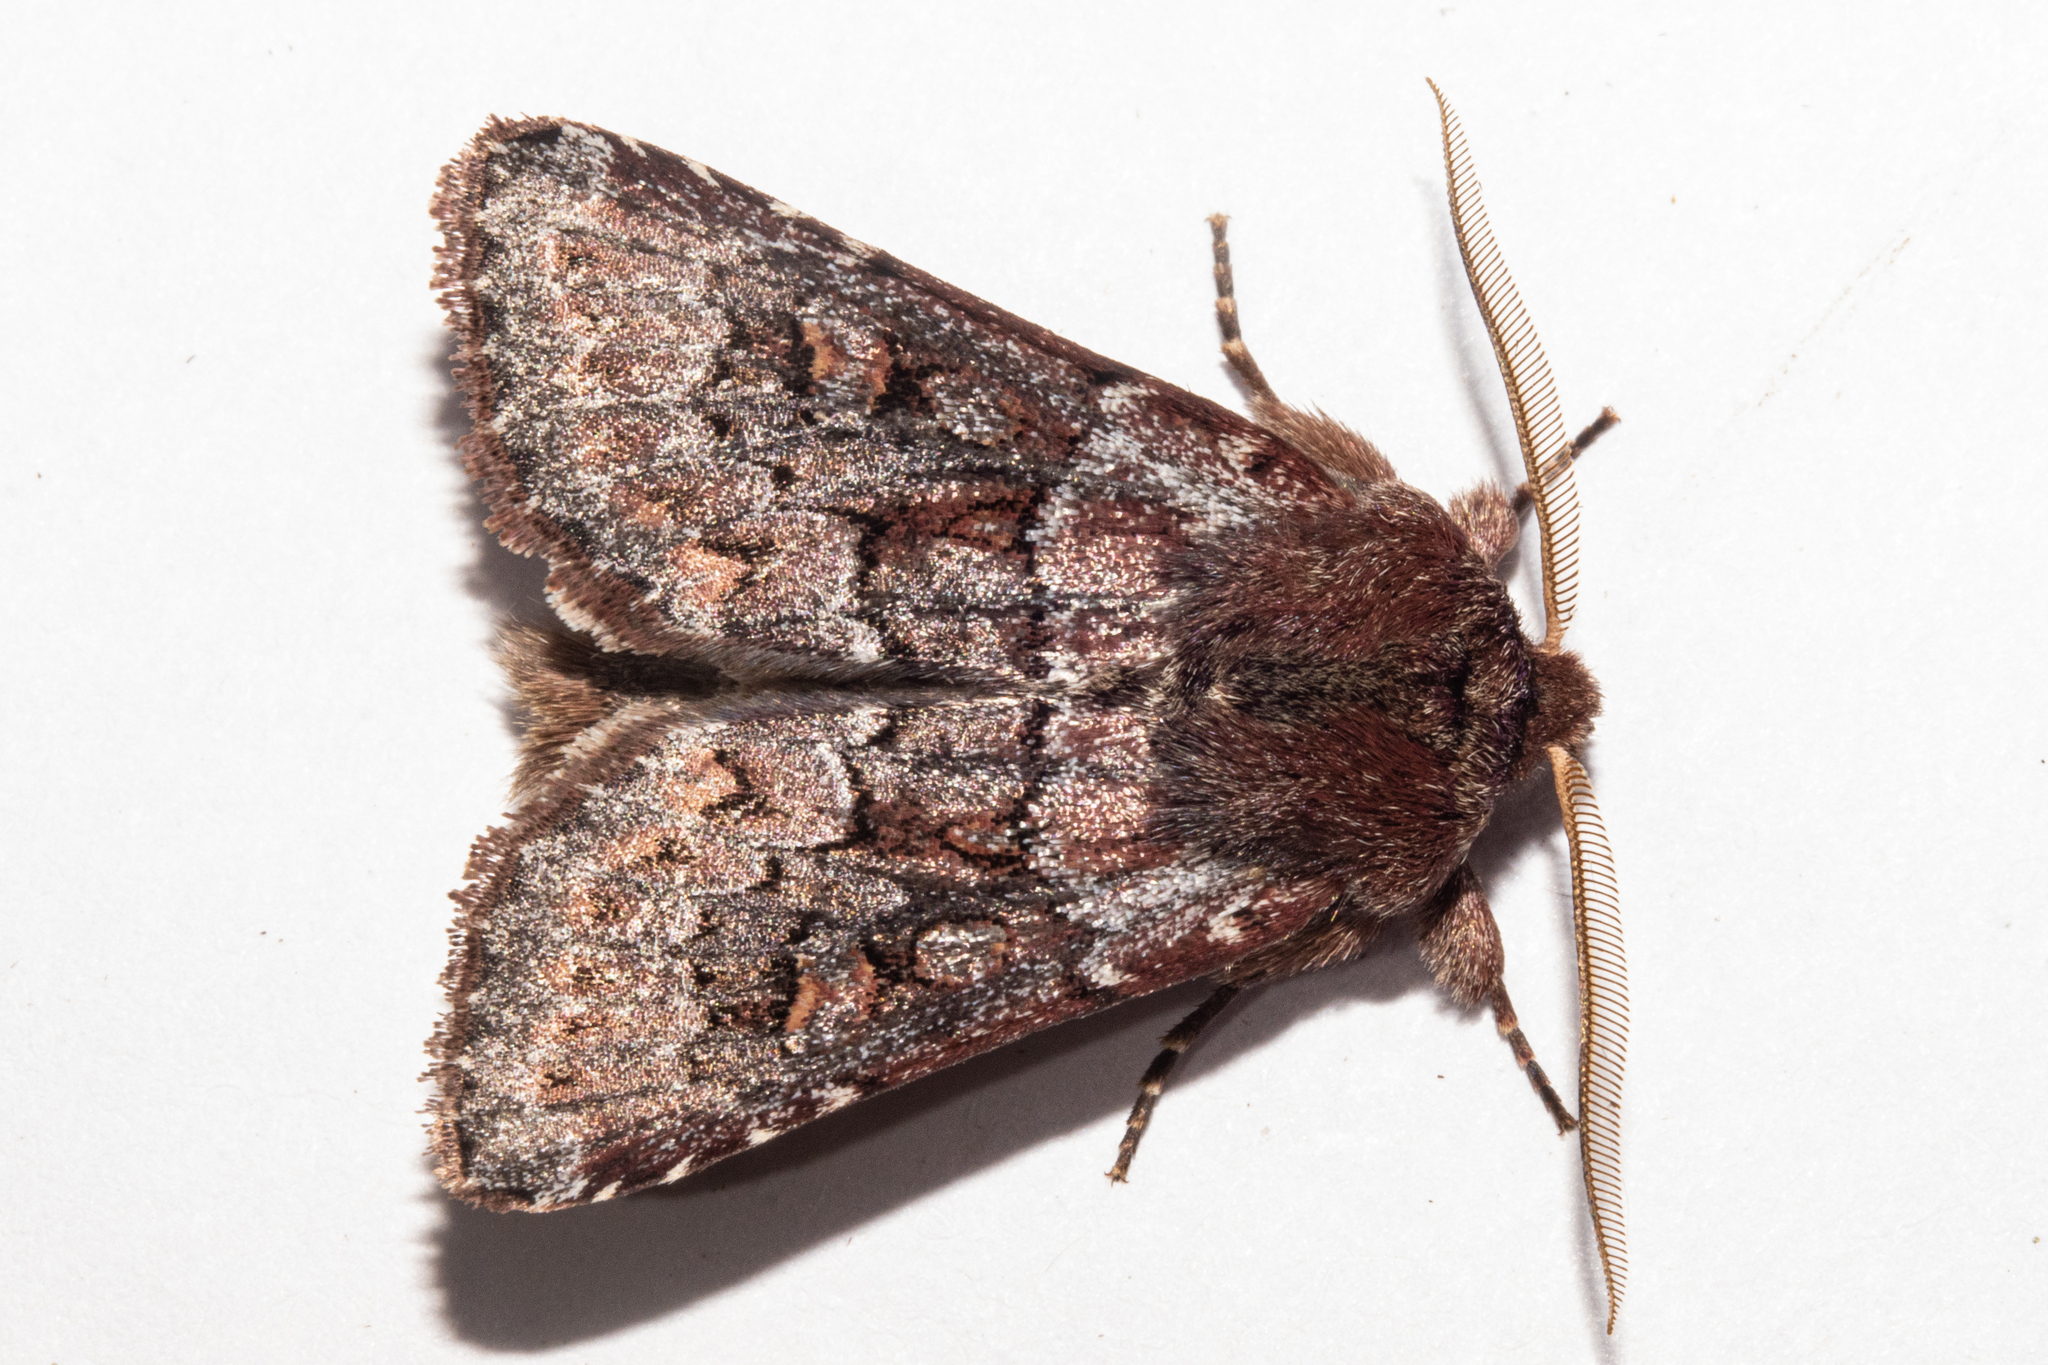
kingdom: Animalia
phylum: Arthropoda
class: Insecta
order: Lepidoptera
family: Noctuidae
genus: Ichneutica
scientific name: Ichneutica marmorata
